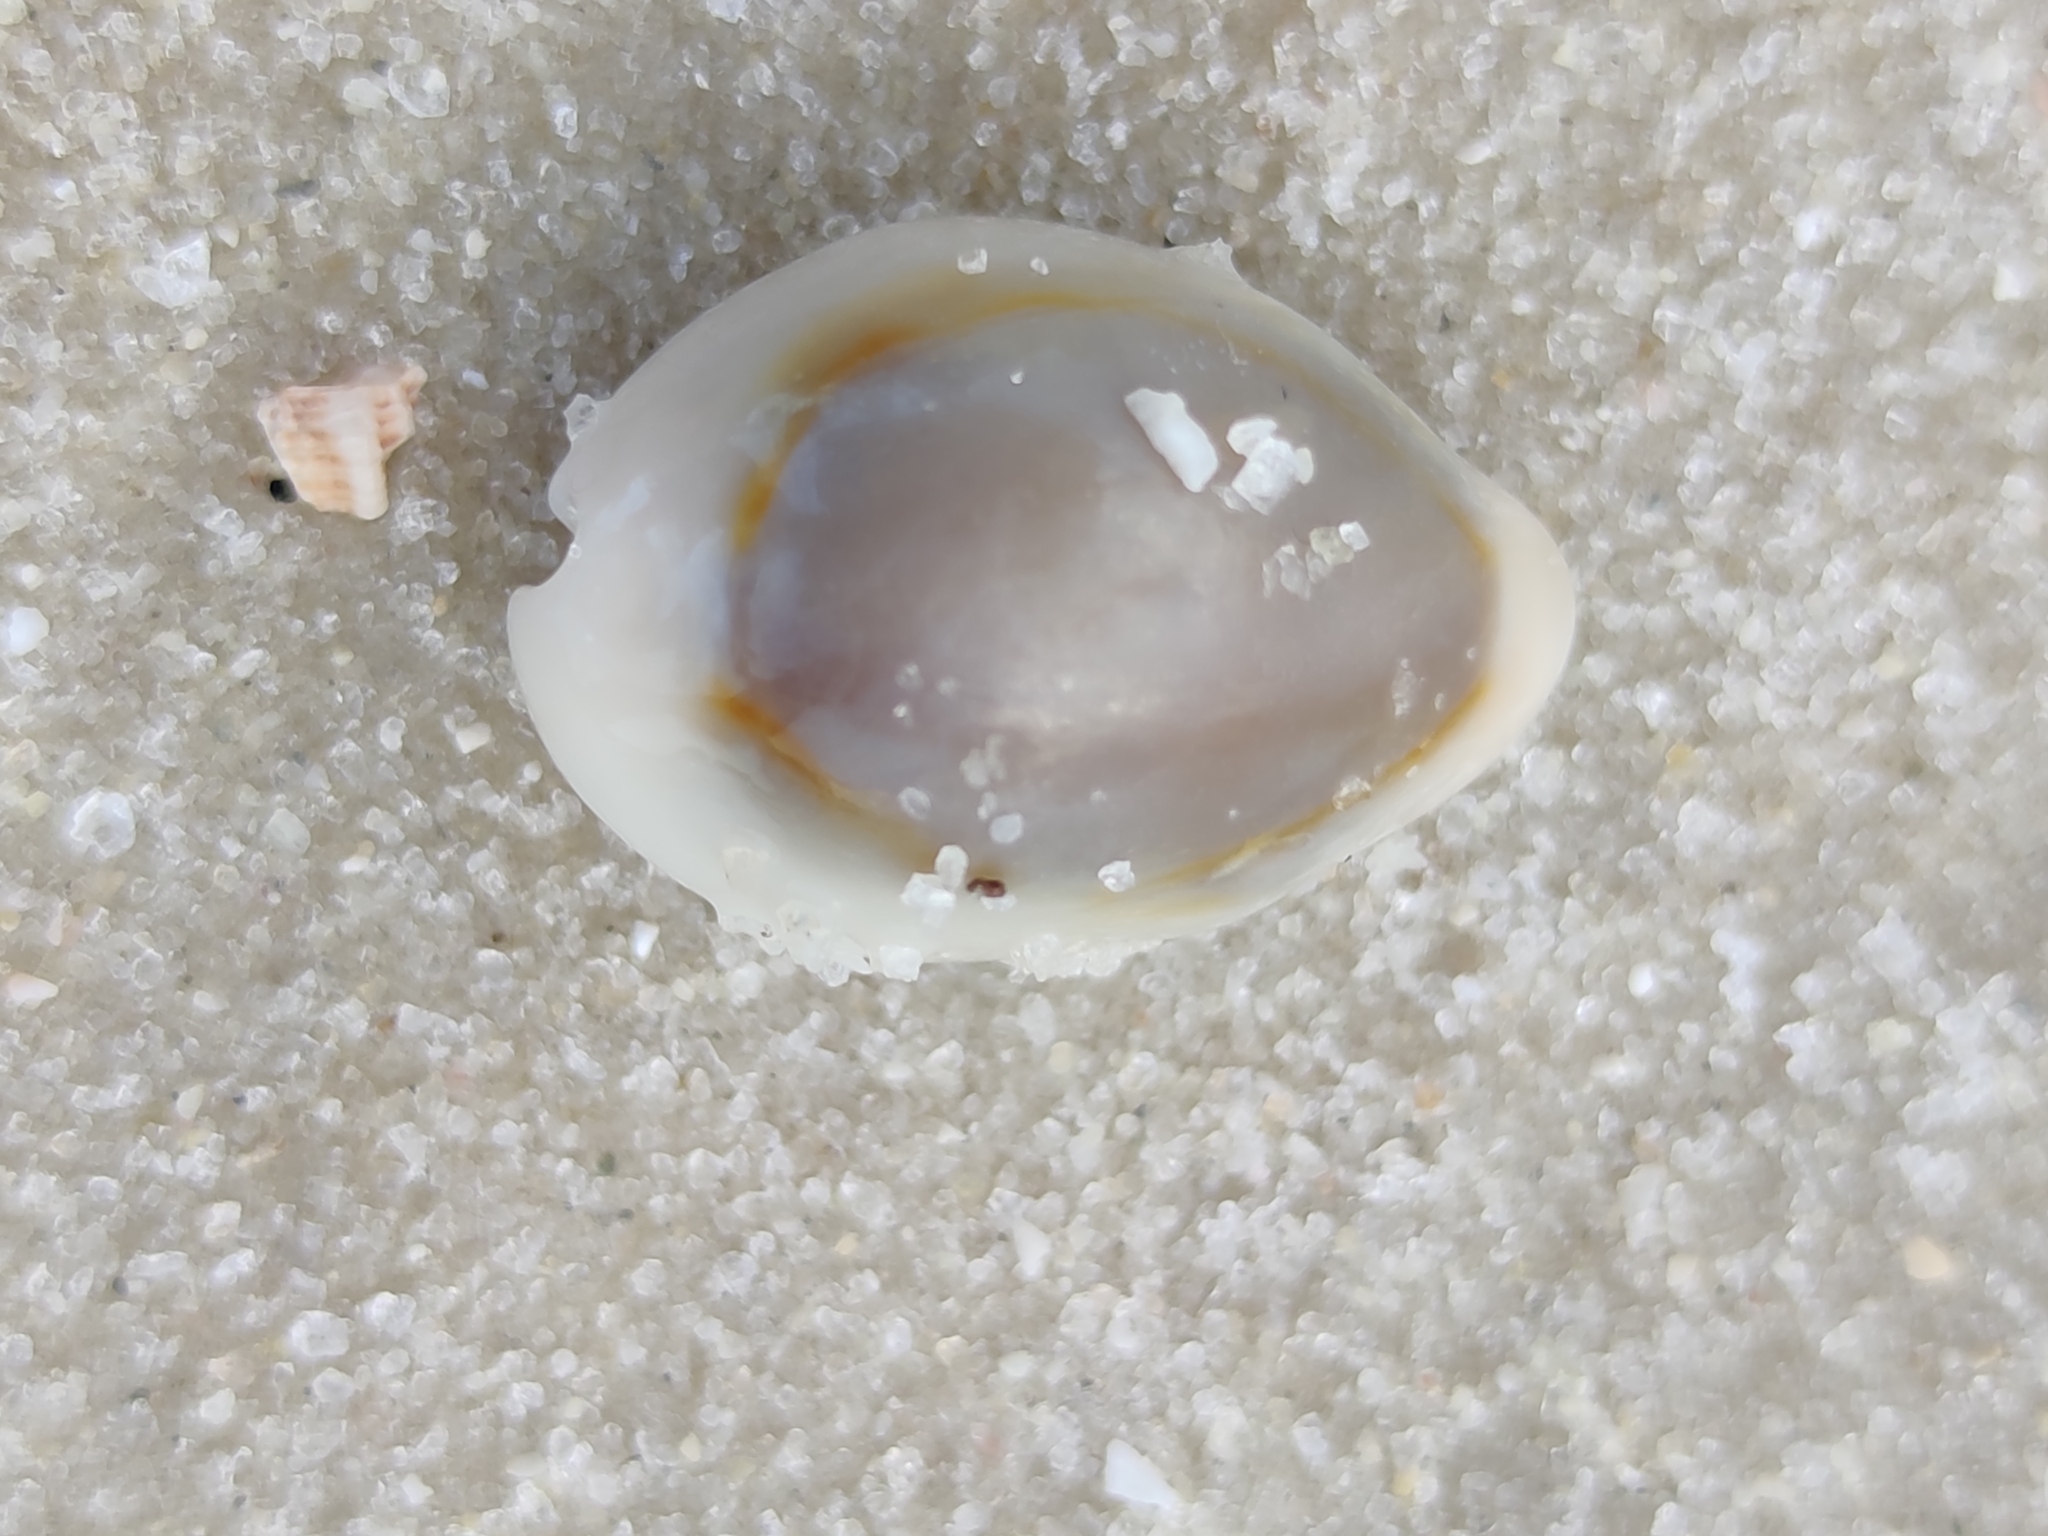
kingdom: Animalia
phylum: Mollusca
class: Gastropoda
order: Littorinimorpha
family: Cypraeidae
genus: Monetaria
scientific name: Monetaria annulus
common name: Ring cowrie
